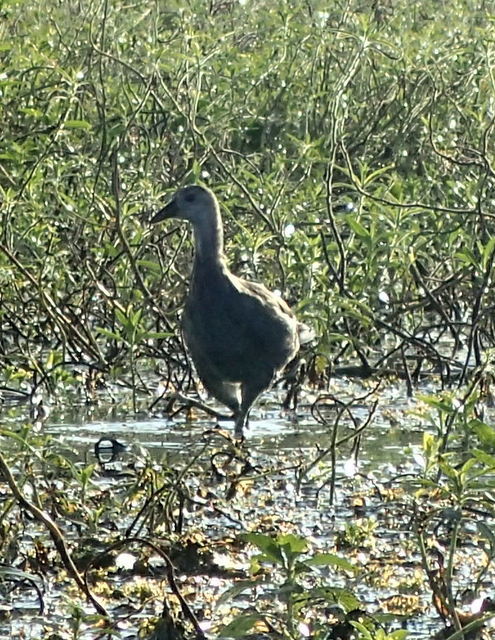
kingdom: Animalia
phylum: Chordata
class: Aves
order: Gruiformes
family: Rallidae
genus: Gallinula
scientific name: Gallinula chloropus
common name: Common moorhen
